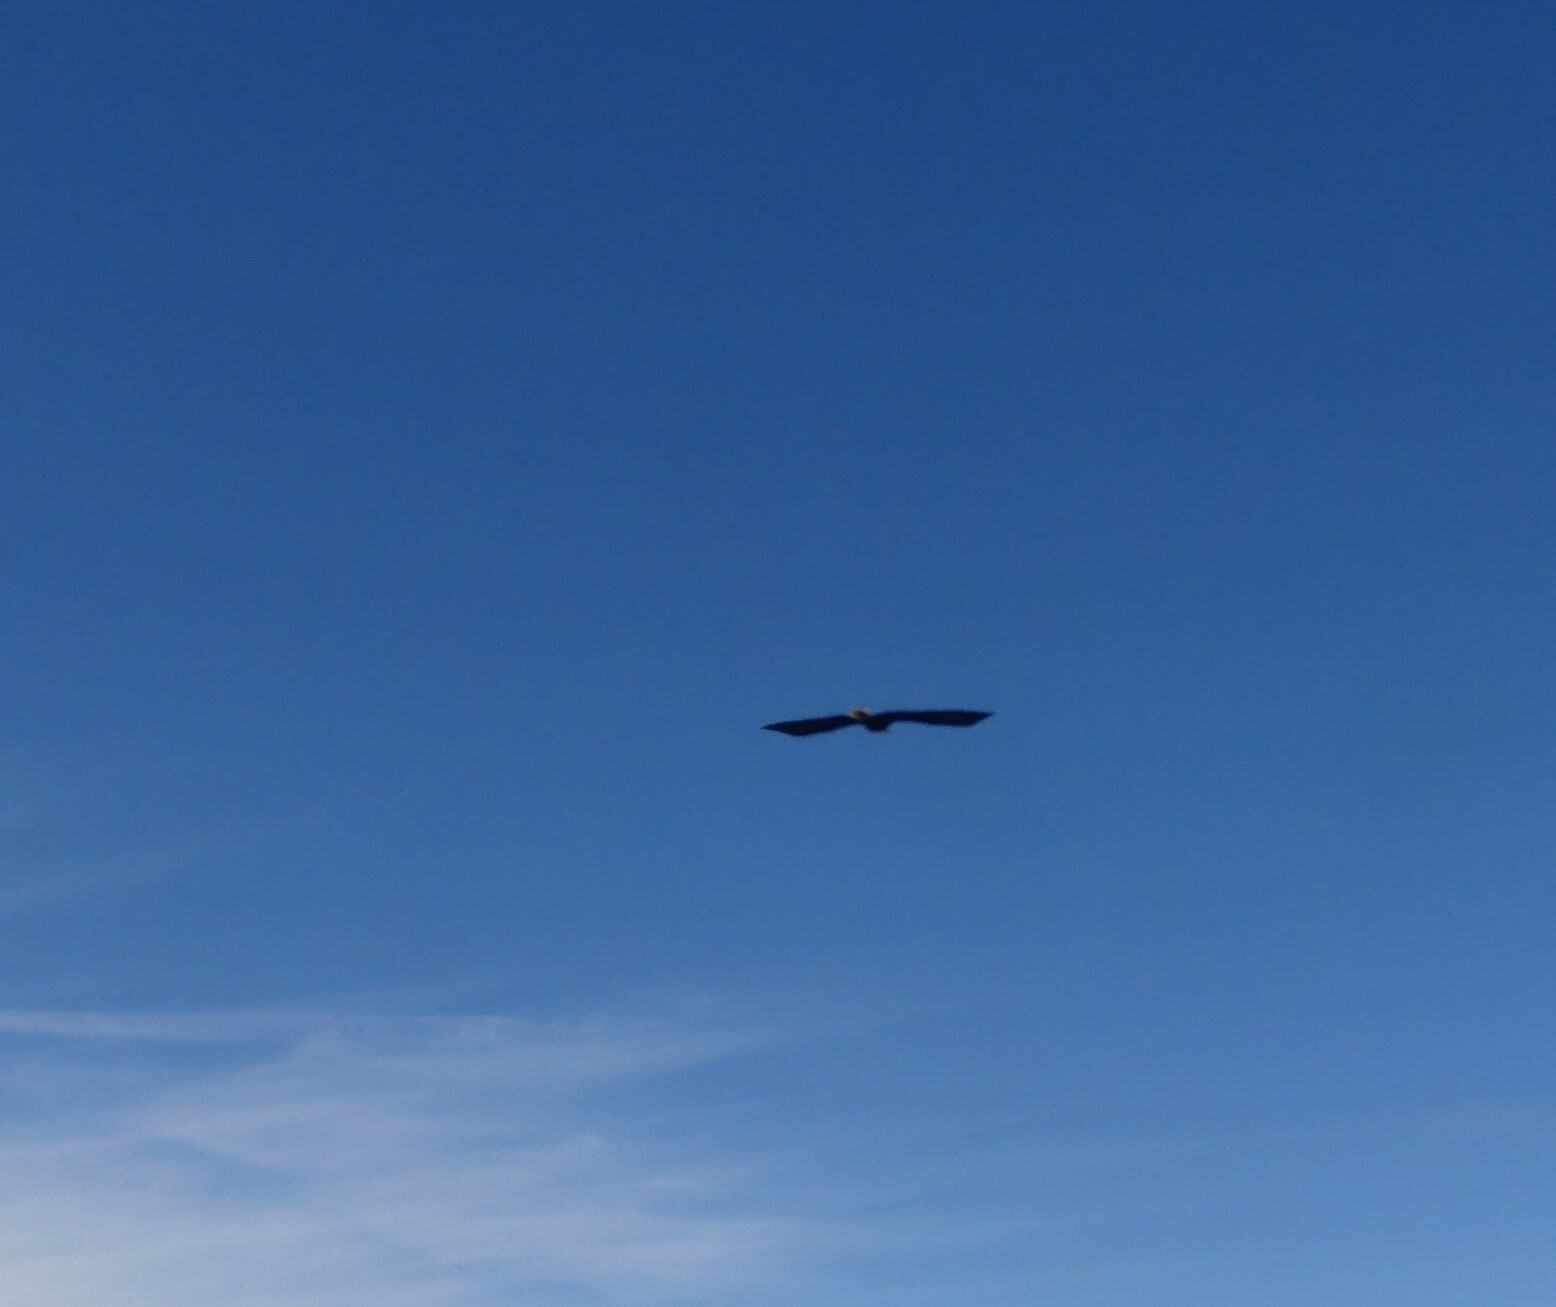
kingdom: Animalia
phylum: Chordata
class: Aves
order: Accipitriformes
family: Accipitridae
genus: Haliaeetus
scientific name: Haliaeetus leucocephalus
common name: Bald eagle
